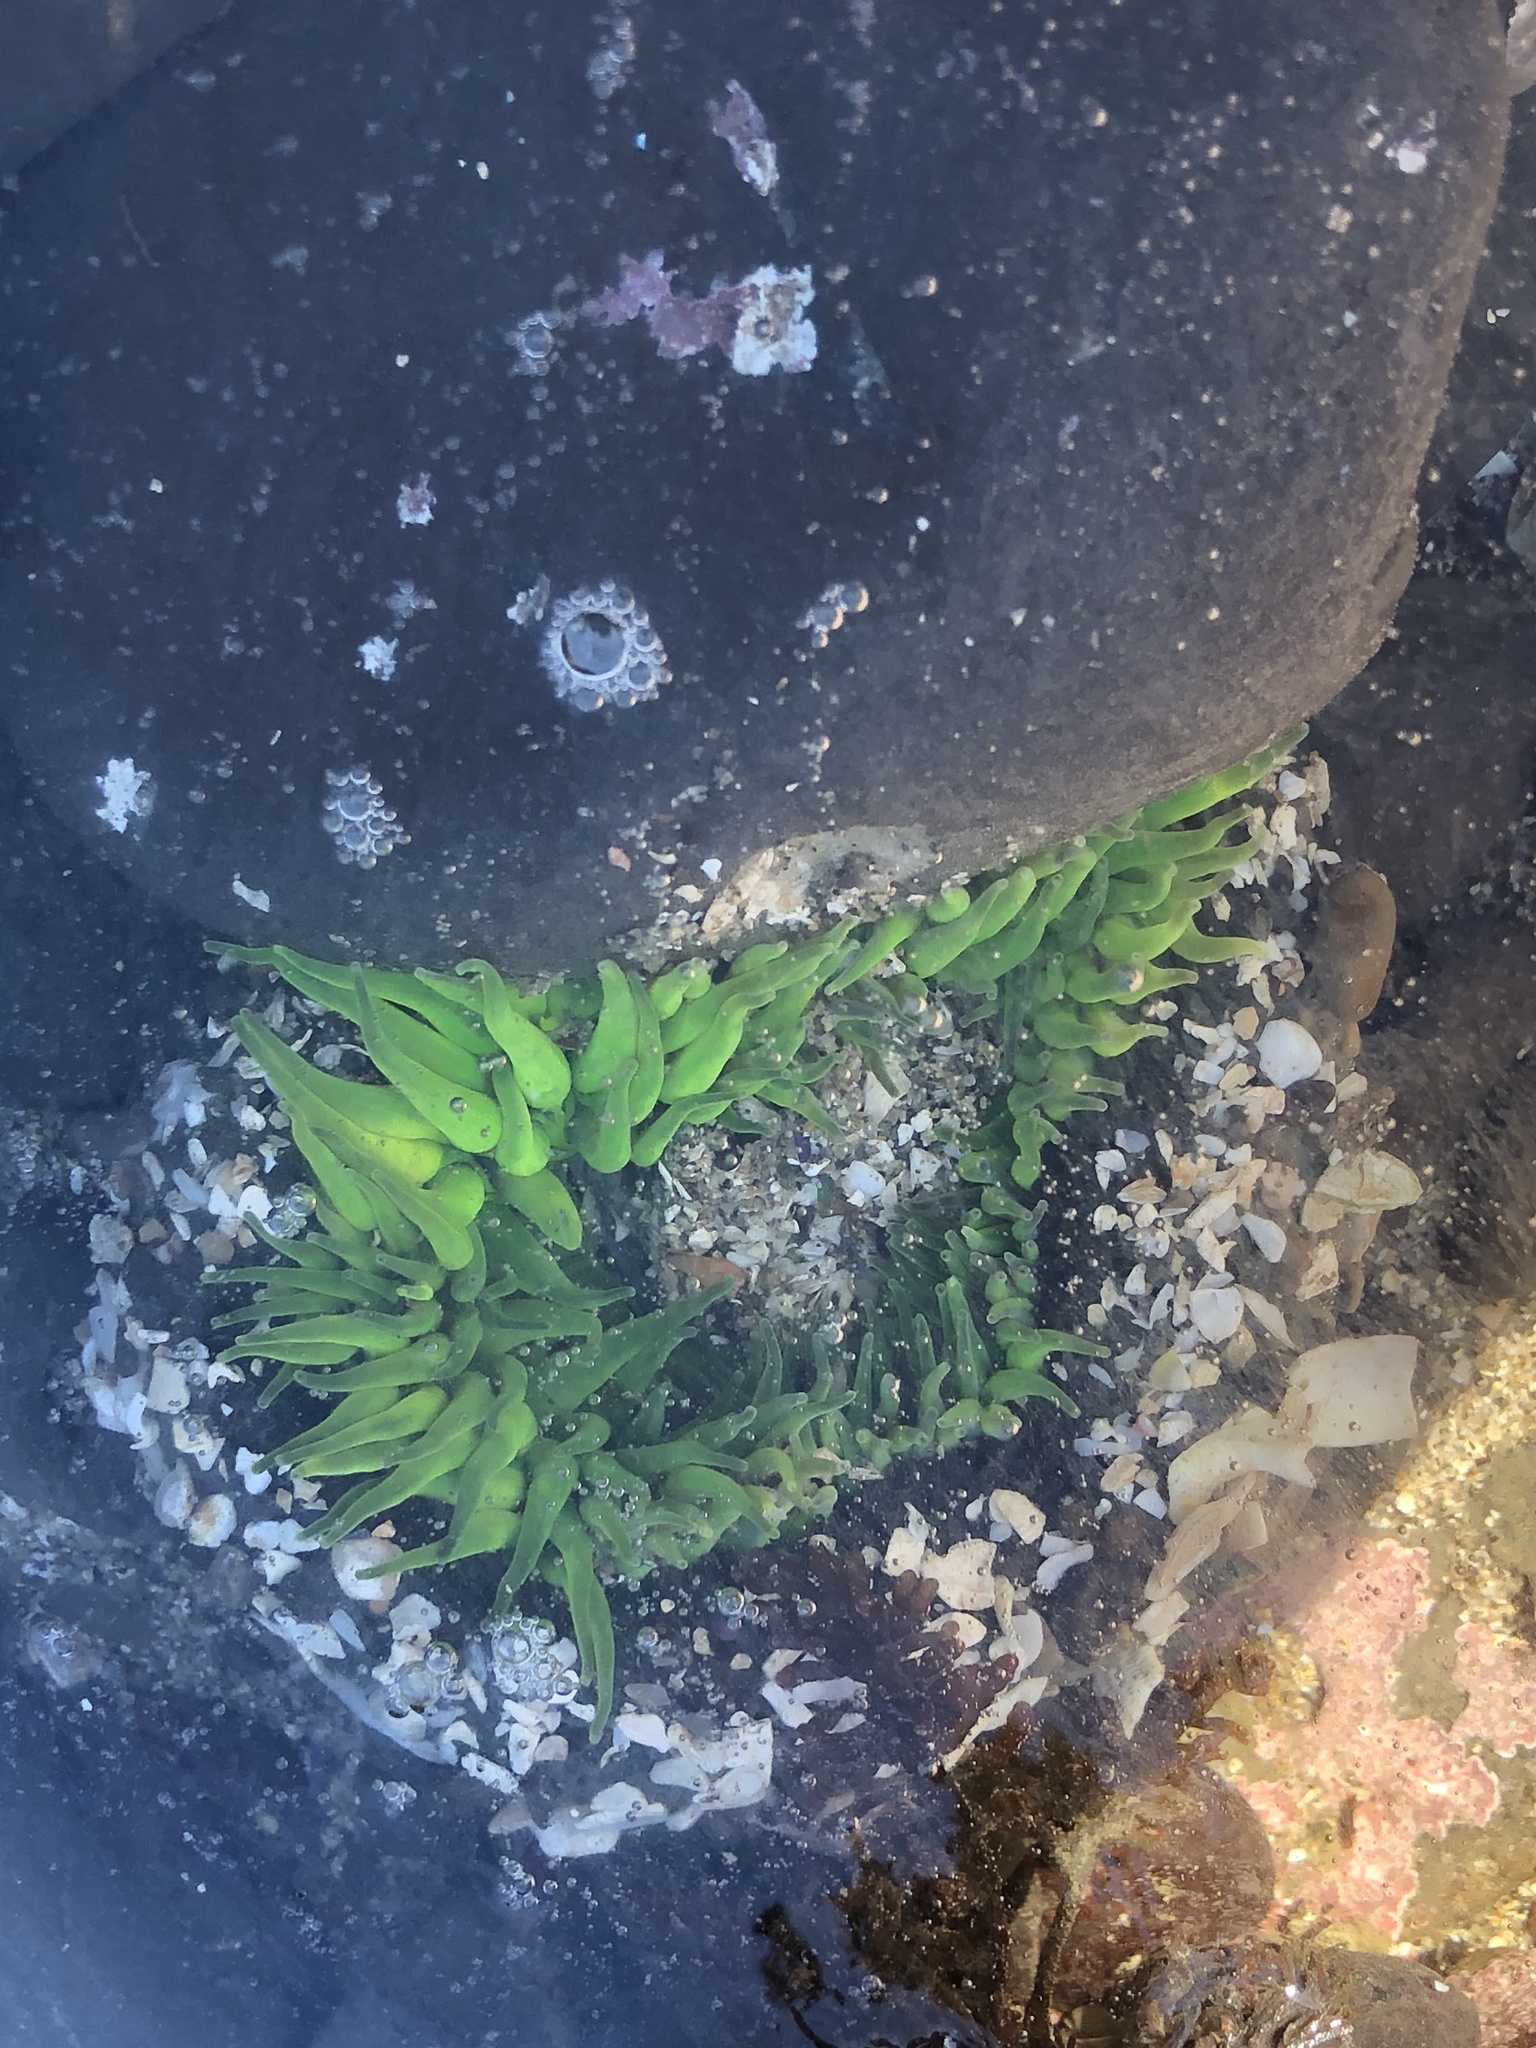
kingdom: Animalia
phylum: Cnidaria
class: Anthozoa
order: Actiniaria
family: Actiniidae
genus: Anthopleura
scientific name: Anthopleura sola
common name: Sun anemone
